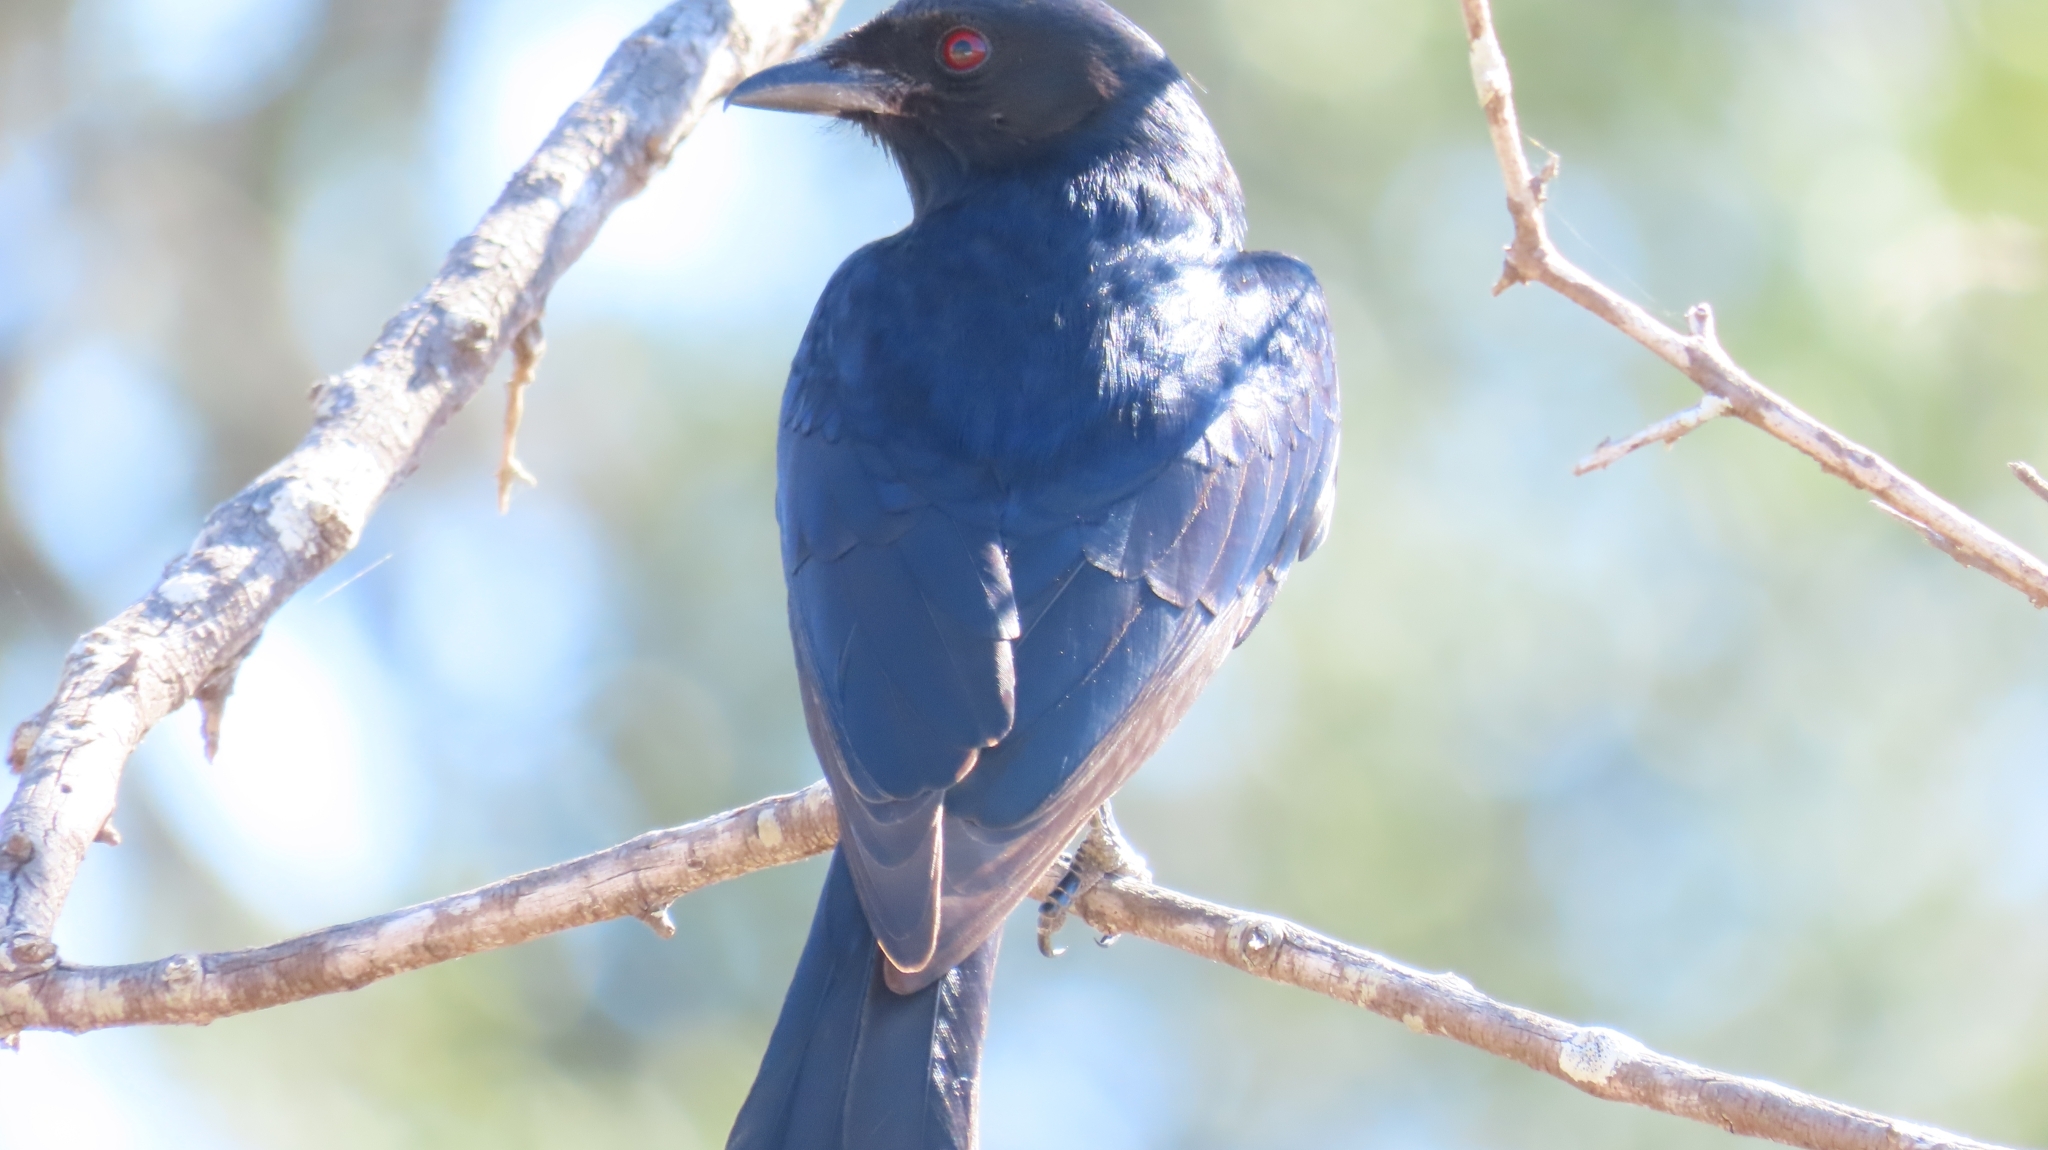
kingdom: Animalia
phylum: Chordata
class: Aves
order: Passeriformes
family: Dicruridae
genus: Dicrurus
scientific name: Dicrurus adsimilis
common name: Fork-tailed drongo
